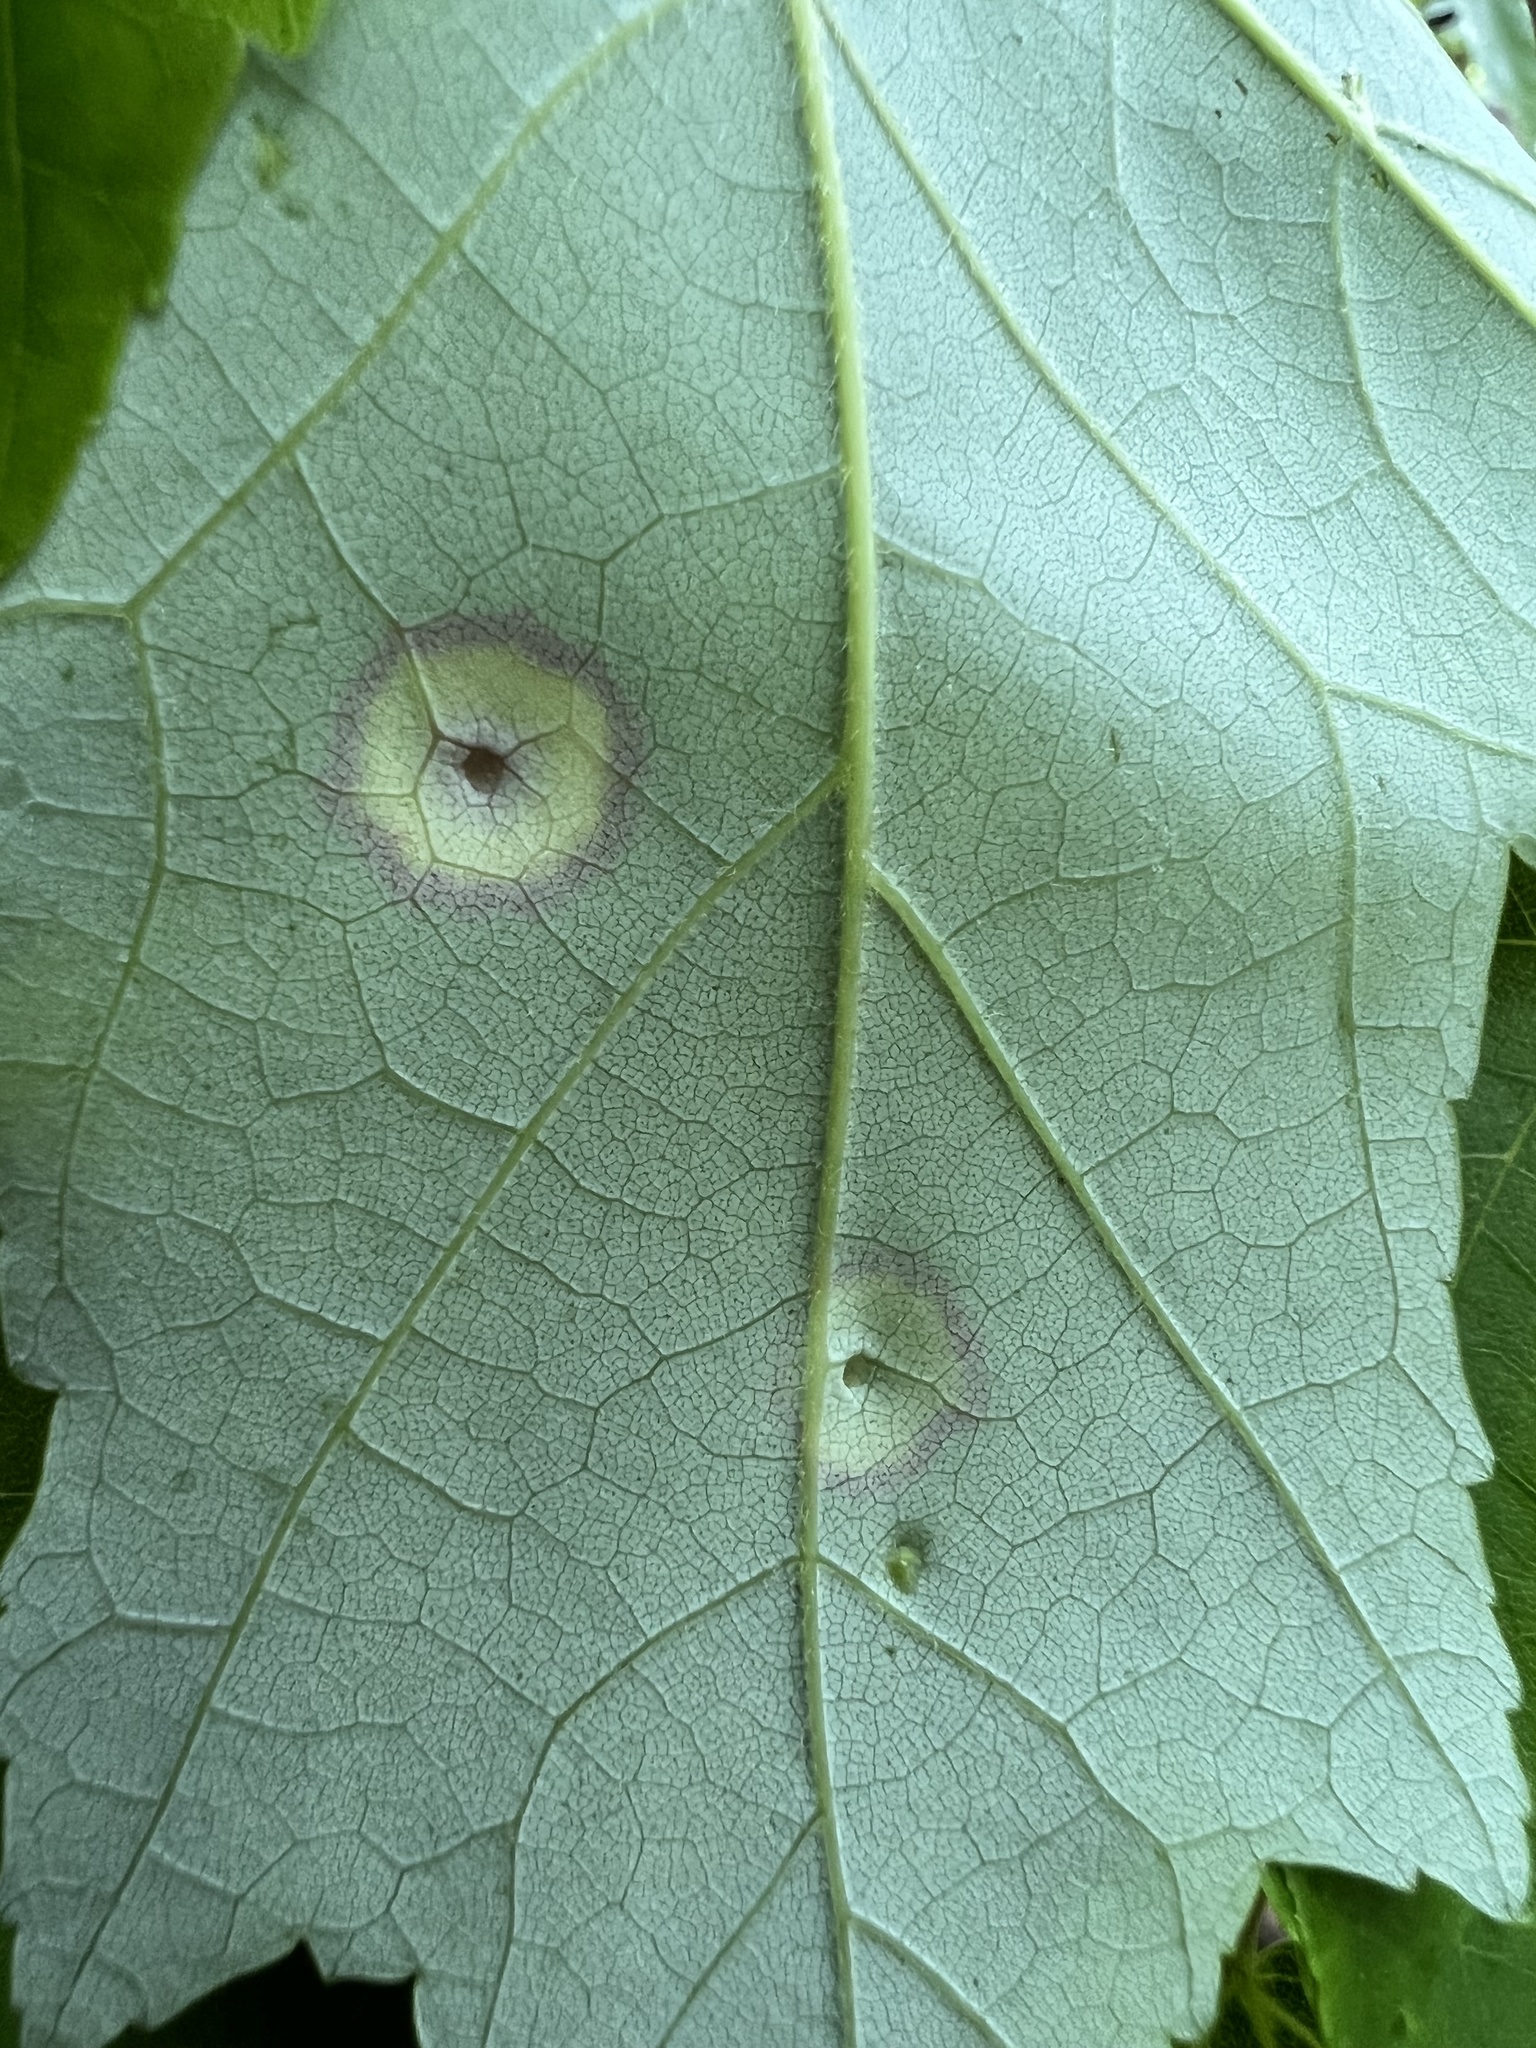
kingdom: Animalia
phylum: Arthropoda
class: Insecta
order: Diptera
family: Cecidomyiidae
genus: Acericecis
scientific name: Acericecis ocellaris
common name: Ocellate gall midge
